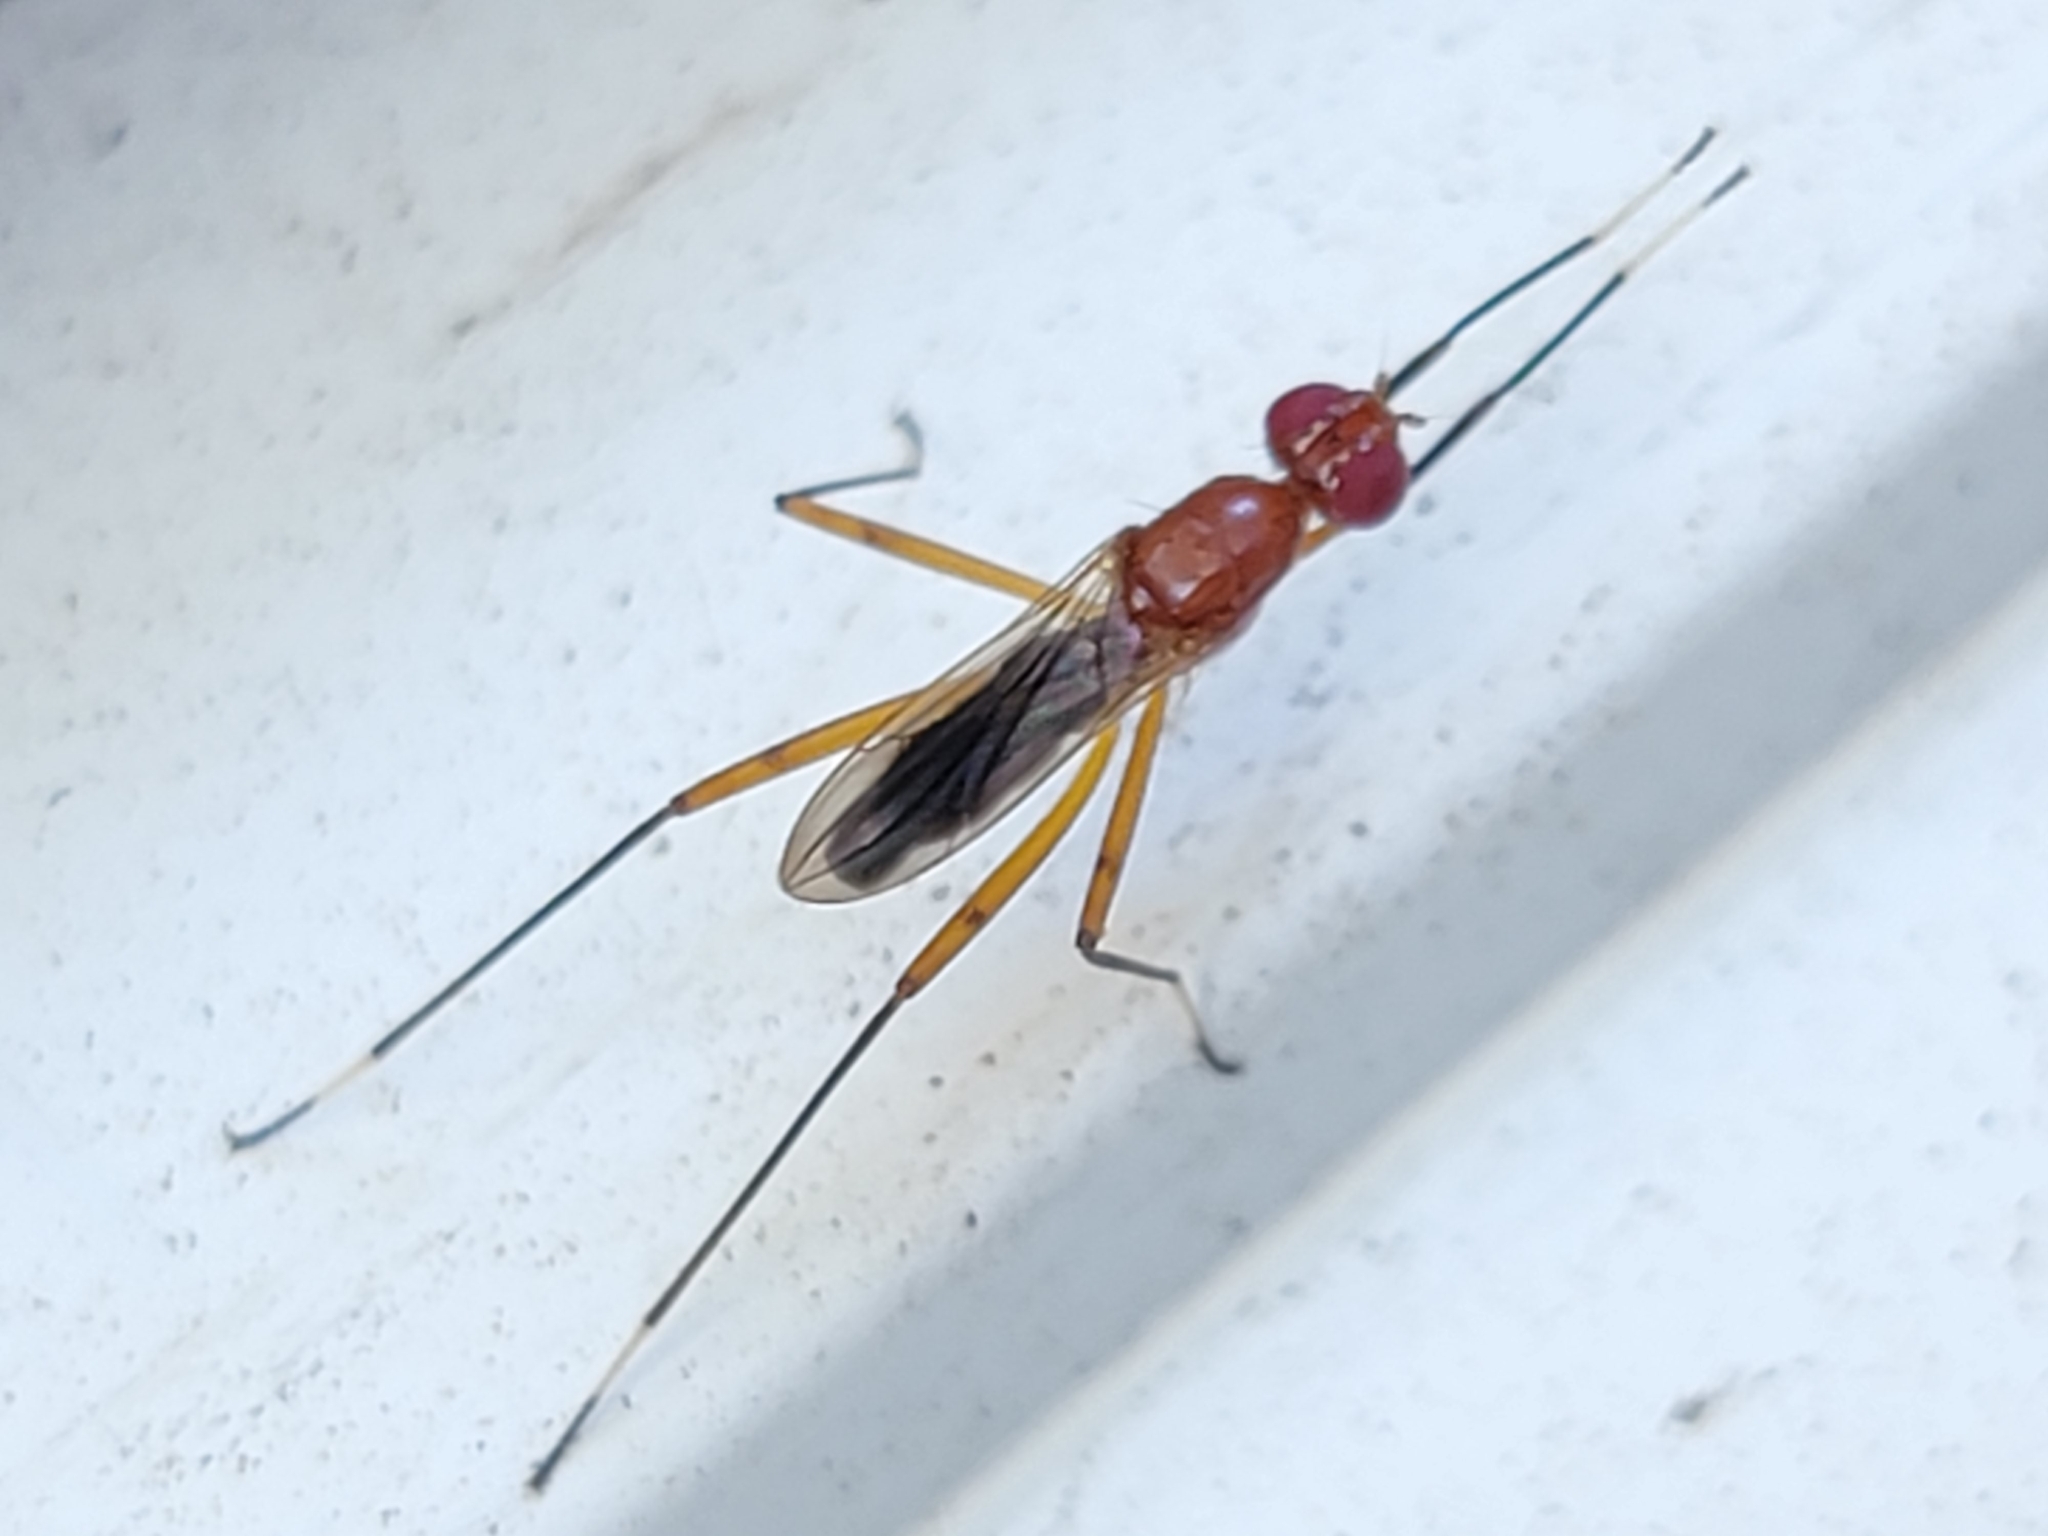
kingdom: Animalia
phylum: Arthropoda
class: Insecta
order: Diptera
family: Micropezidae
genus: Grallipeza
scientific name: Grallipeza nebulosa
